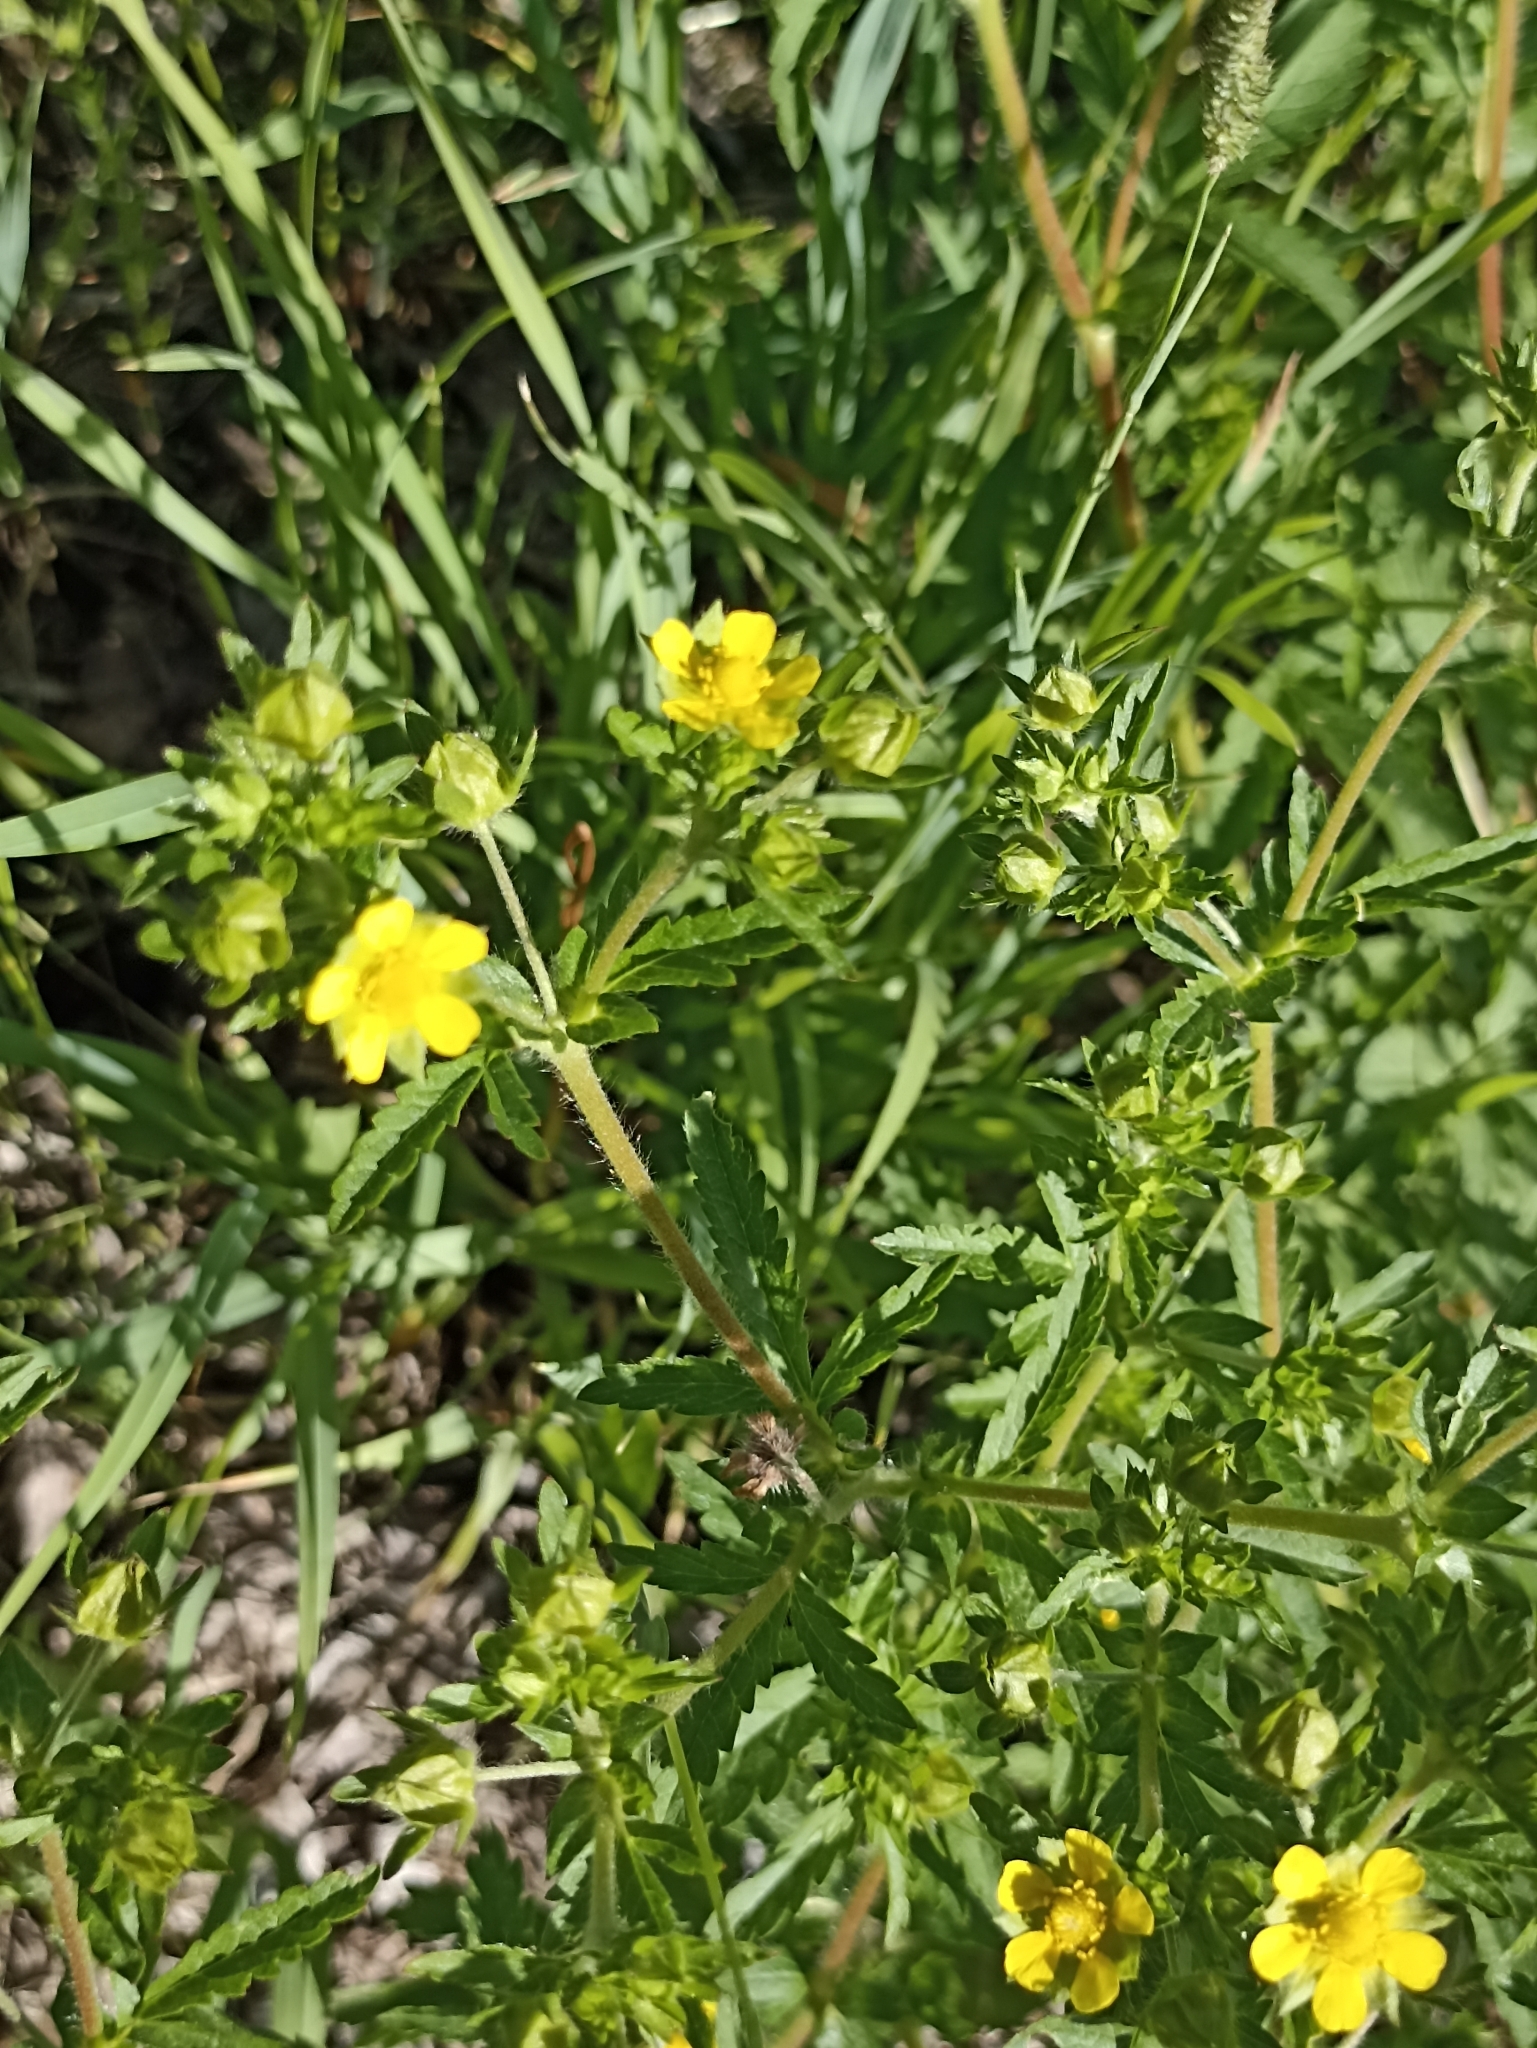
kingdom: Plantae
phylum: Tracheophyta
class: Magnoliopsida
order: Rosales
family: Rosaceae
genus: Potentilla
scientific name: Potentilla norvegica
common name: Ternate-leaved cinquefoil
